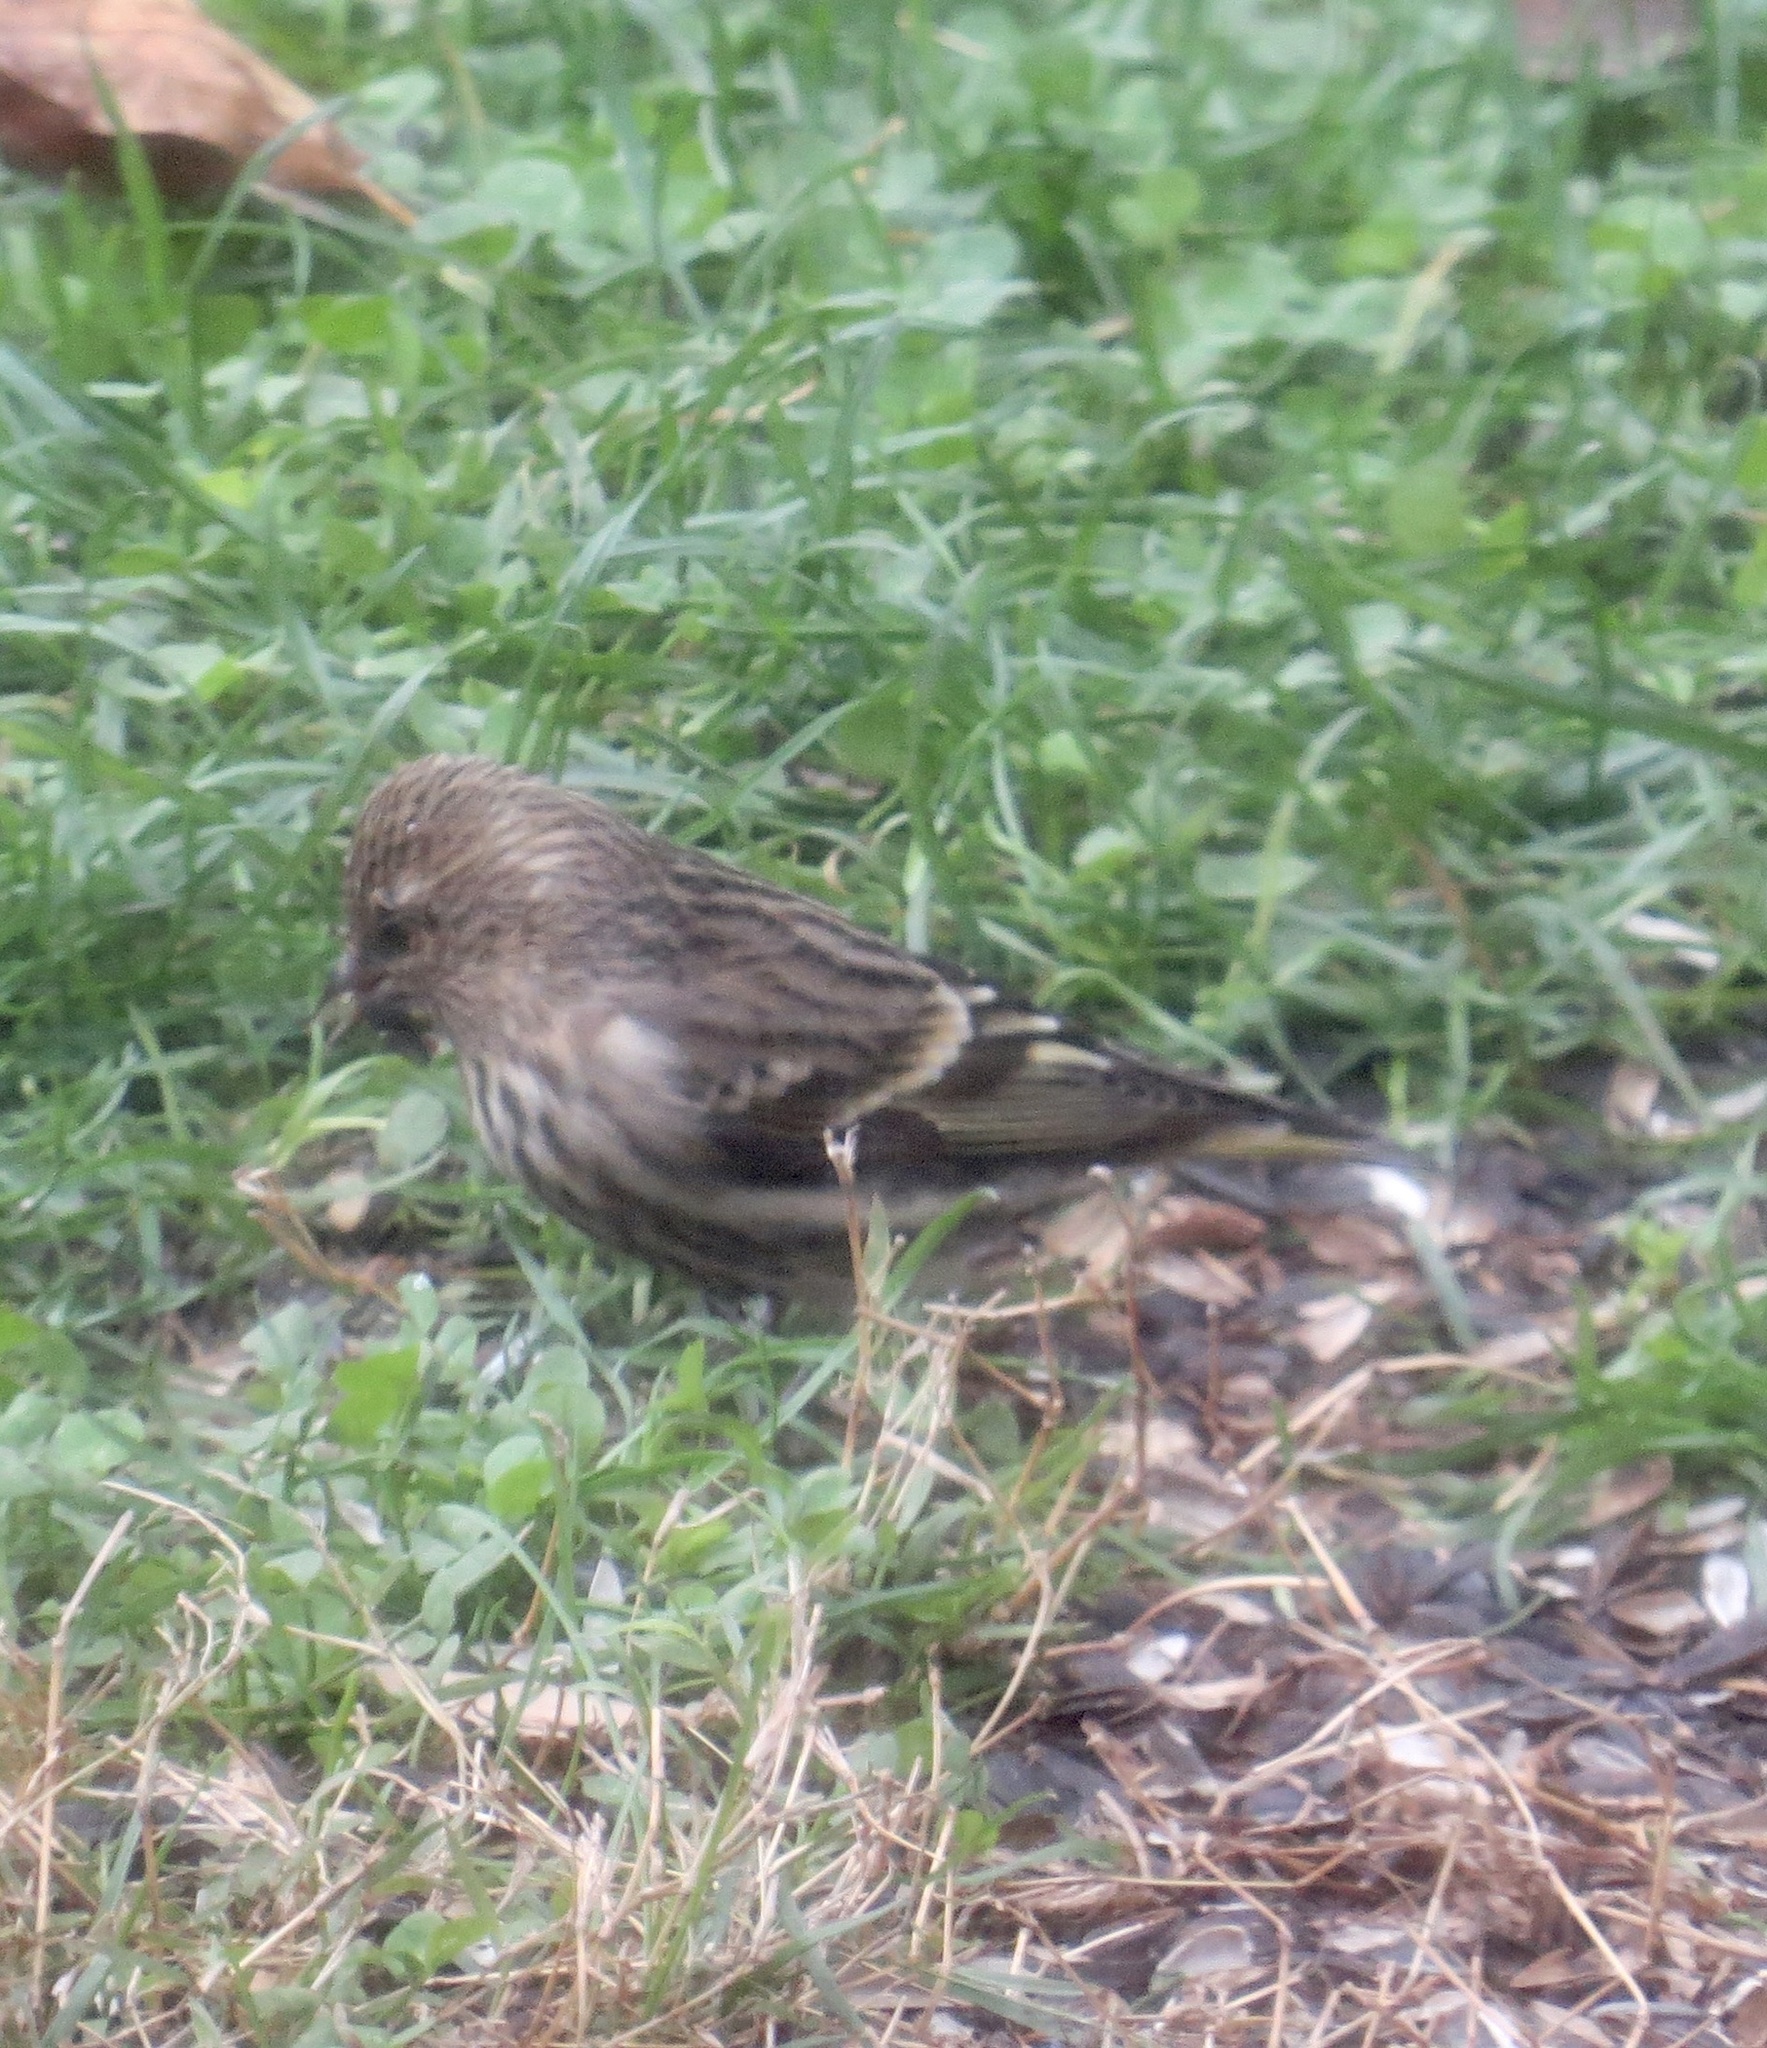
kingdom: Animalia
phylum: Chordata
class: Aves
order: Passeriformes
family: Fringillidae
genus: Spinus
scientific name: Spinus pinus
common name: Pine siskin
